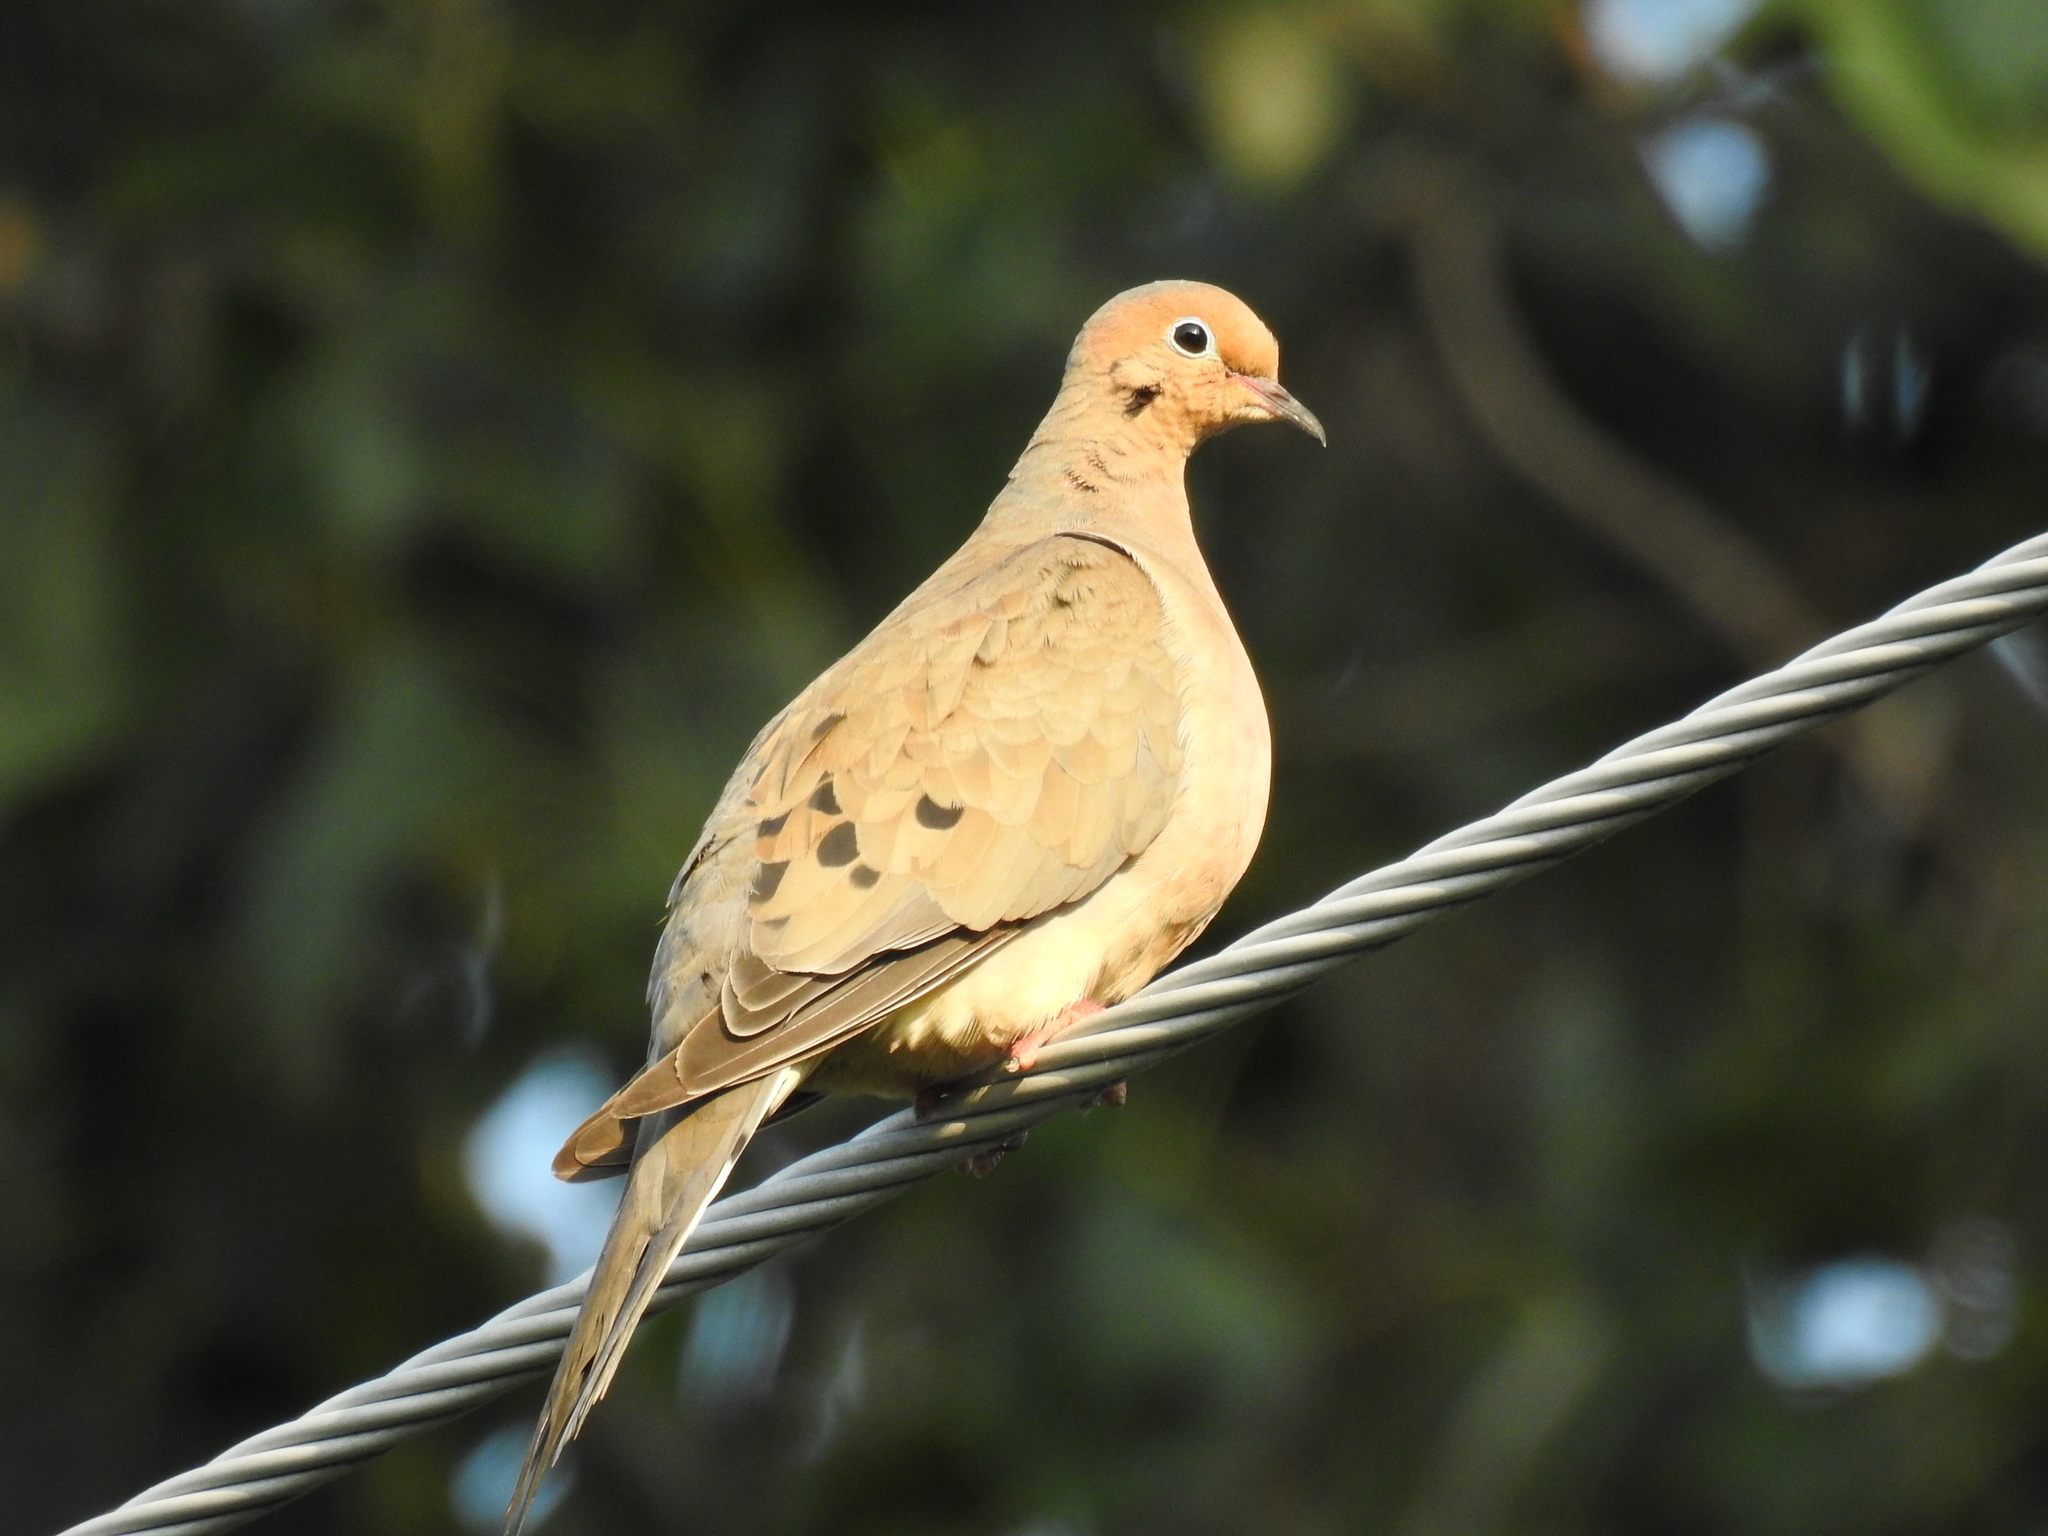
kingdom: Animalia
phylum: Chordata
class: Aves
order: Columbiformes
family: Columbidae
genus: Zenaida
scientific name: Zenaida macroura
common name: Mourning dove
